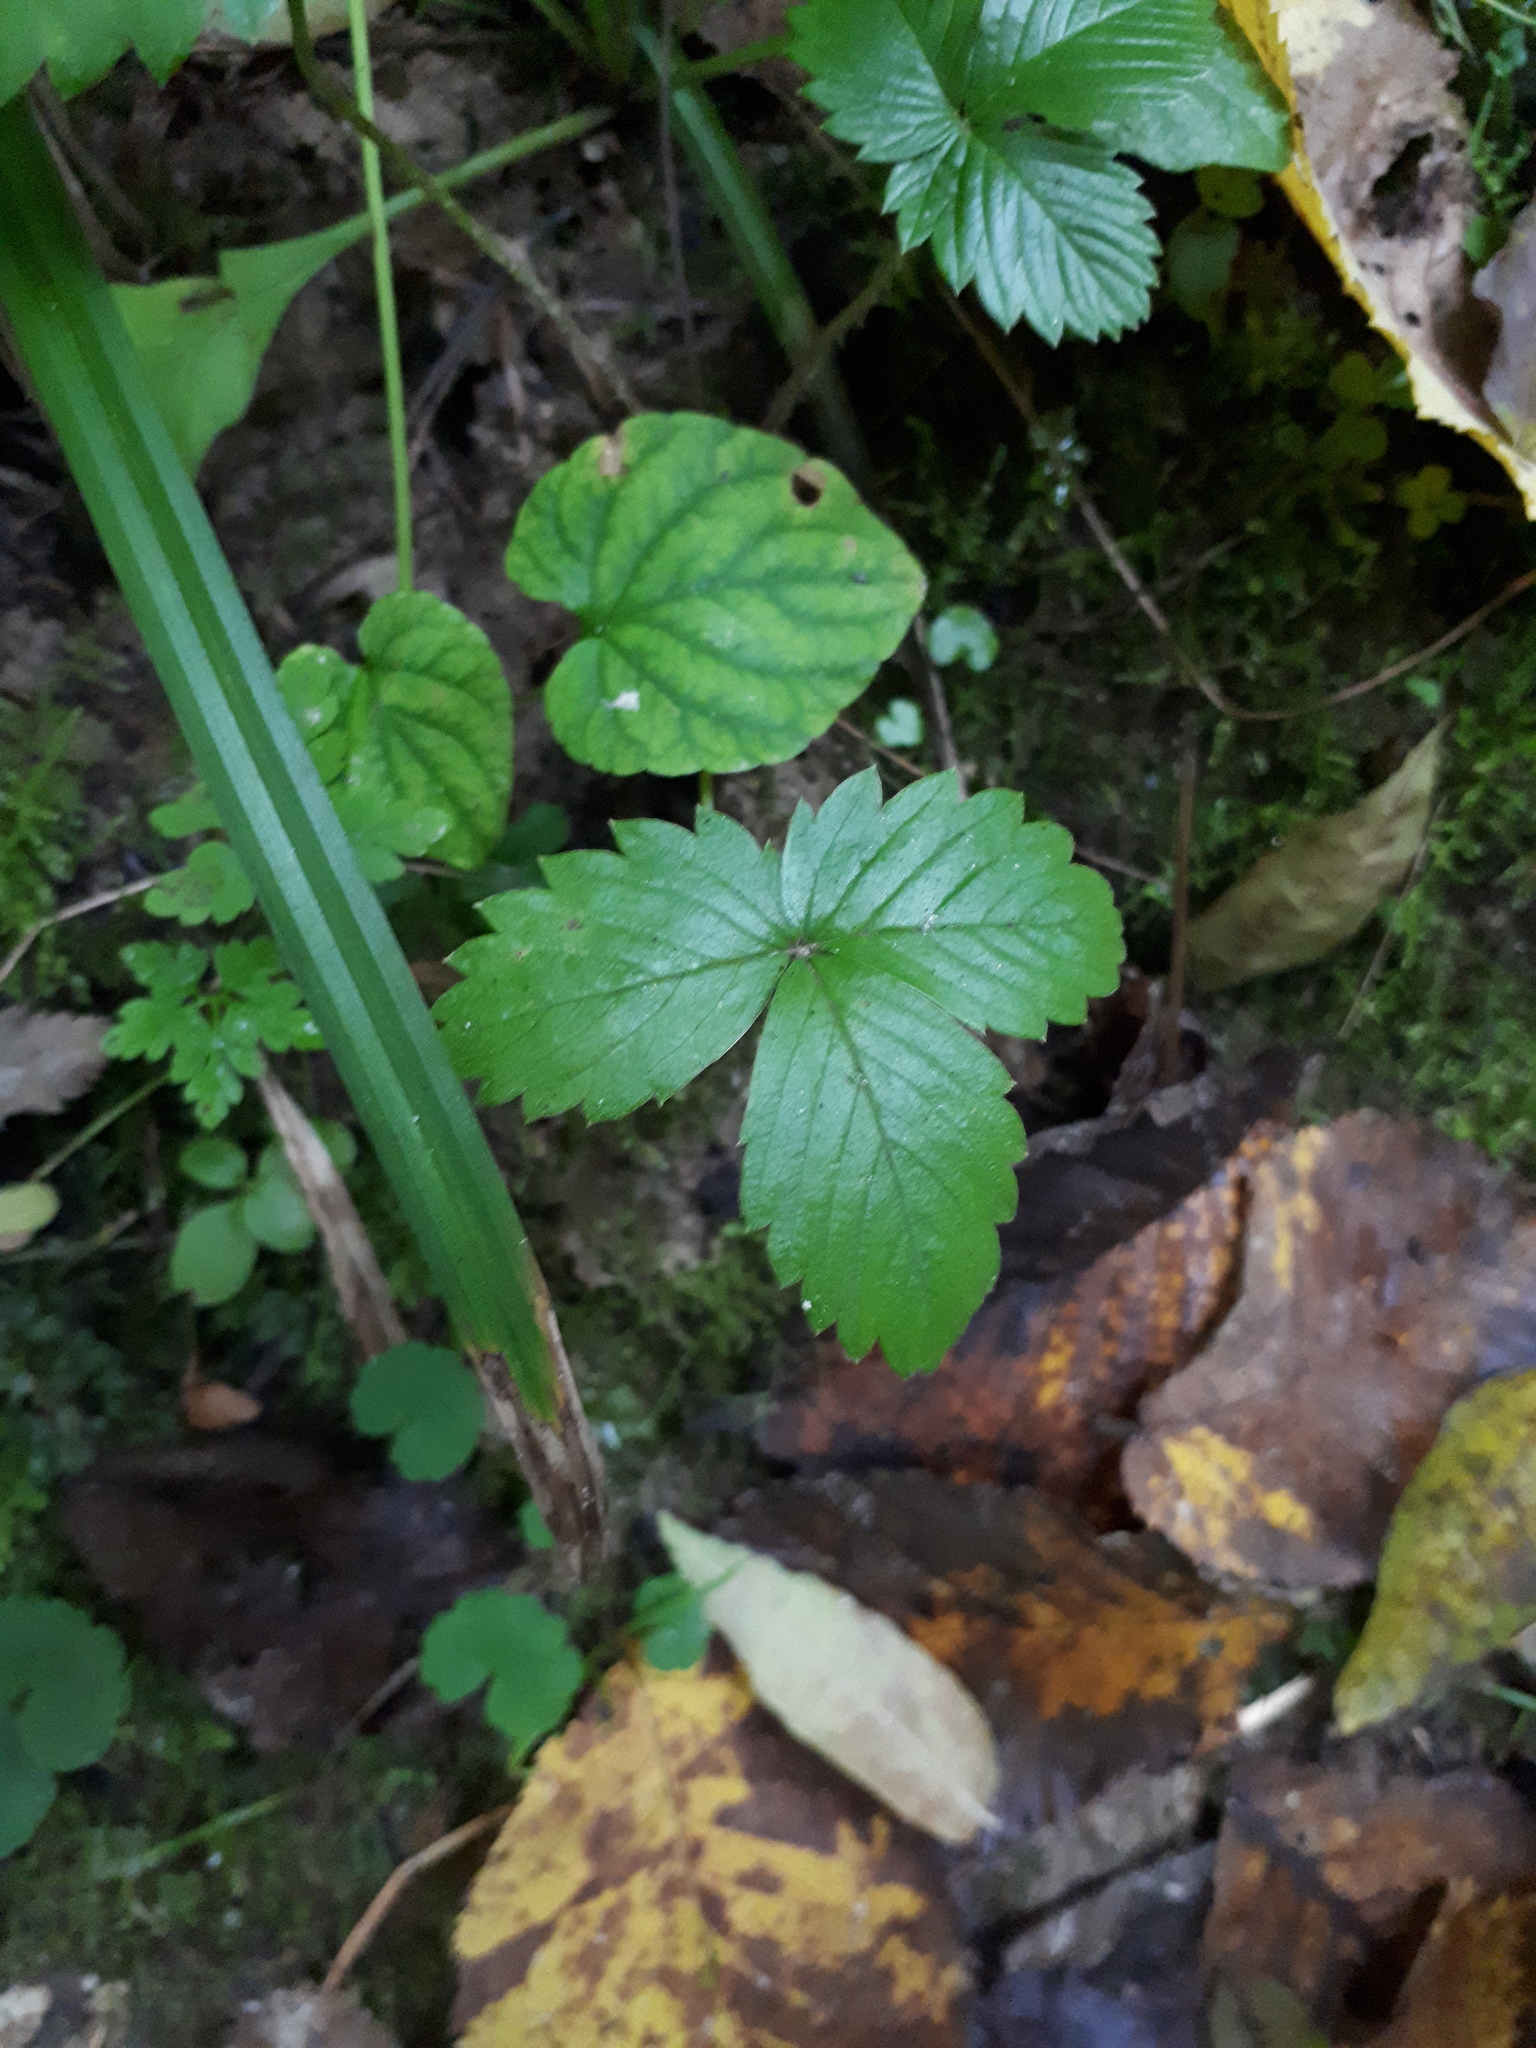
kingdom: Plantae
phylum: Tracheophyta
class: Magnoliopsida
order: Rosales
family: Rosaceae
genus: Fragaria
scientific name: Fragaria vesca
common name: Wild strawberry
